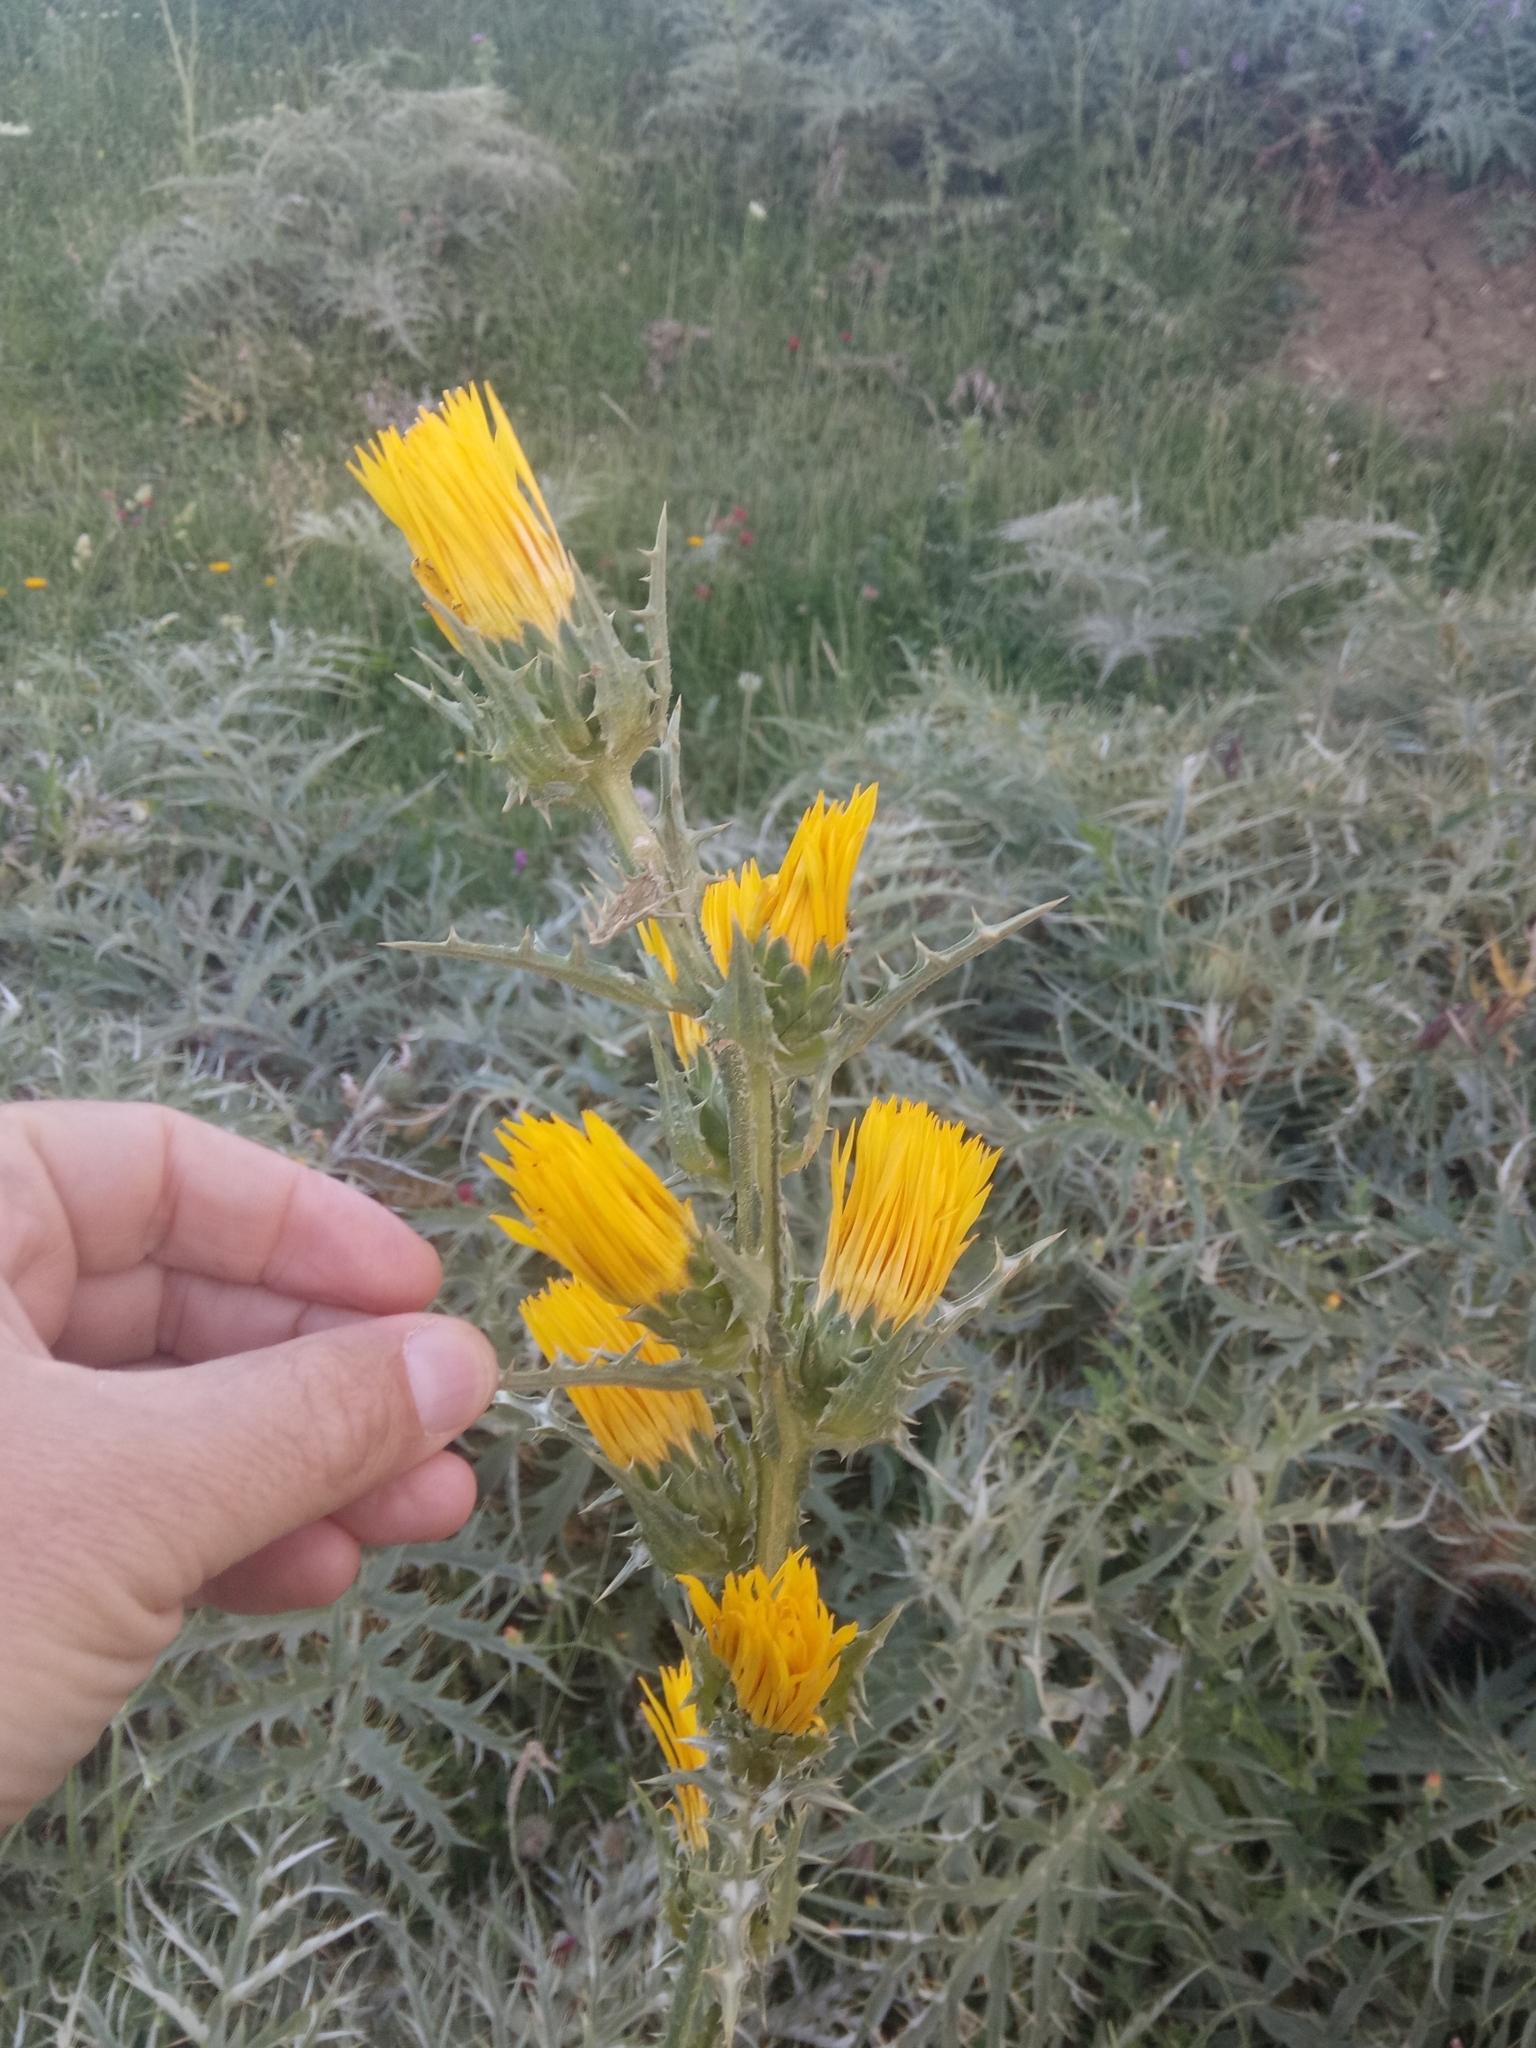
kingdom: Plantae
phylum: Tracheophyta
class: Magnoliopsida
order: Asterales
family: Asteraceae
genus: Scolymus
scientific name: Scolymus grandiflorus
